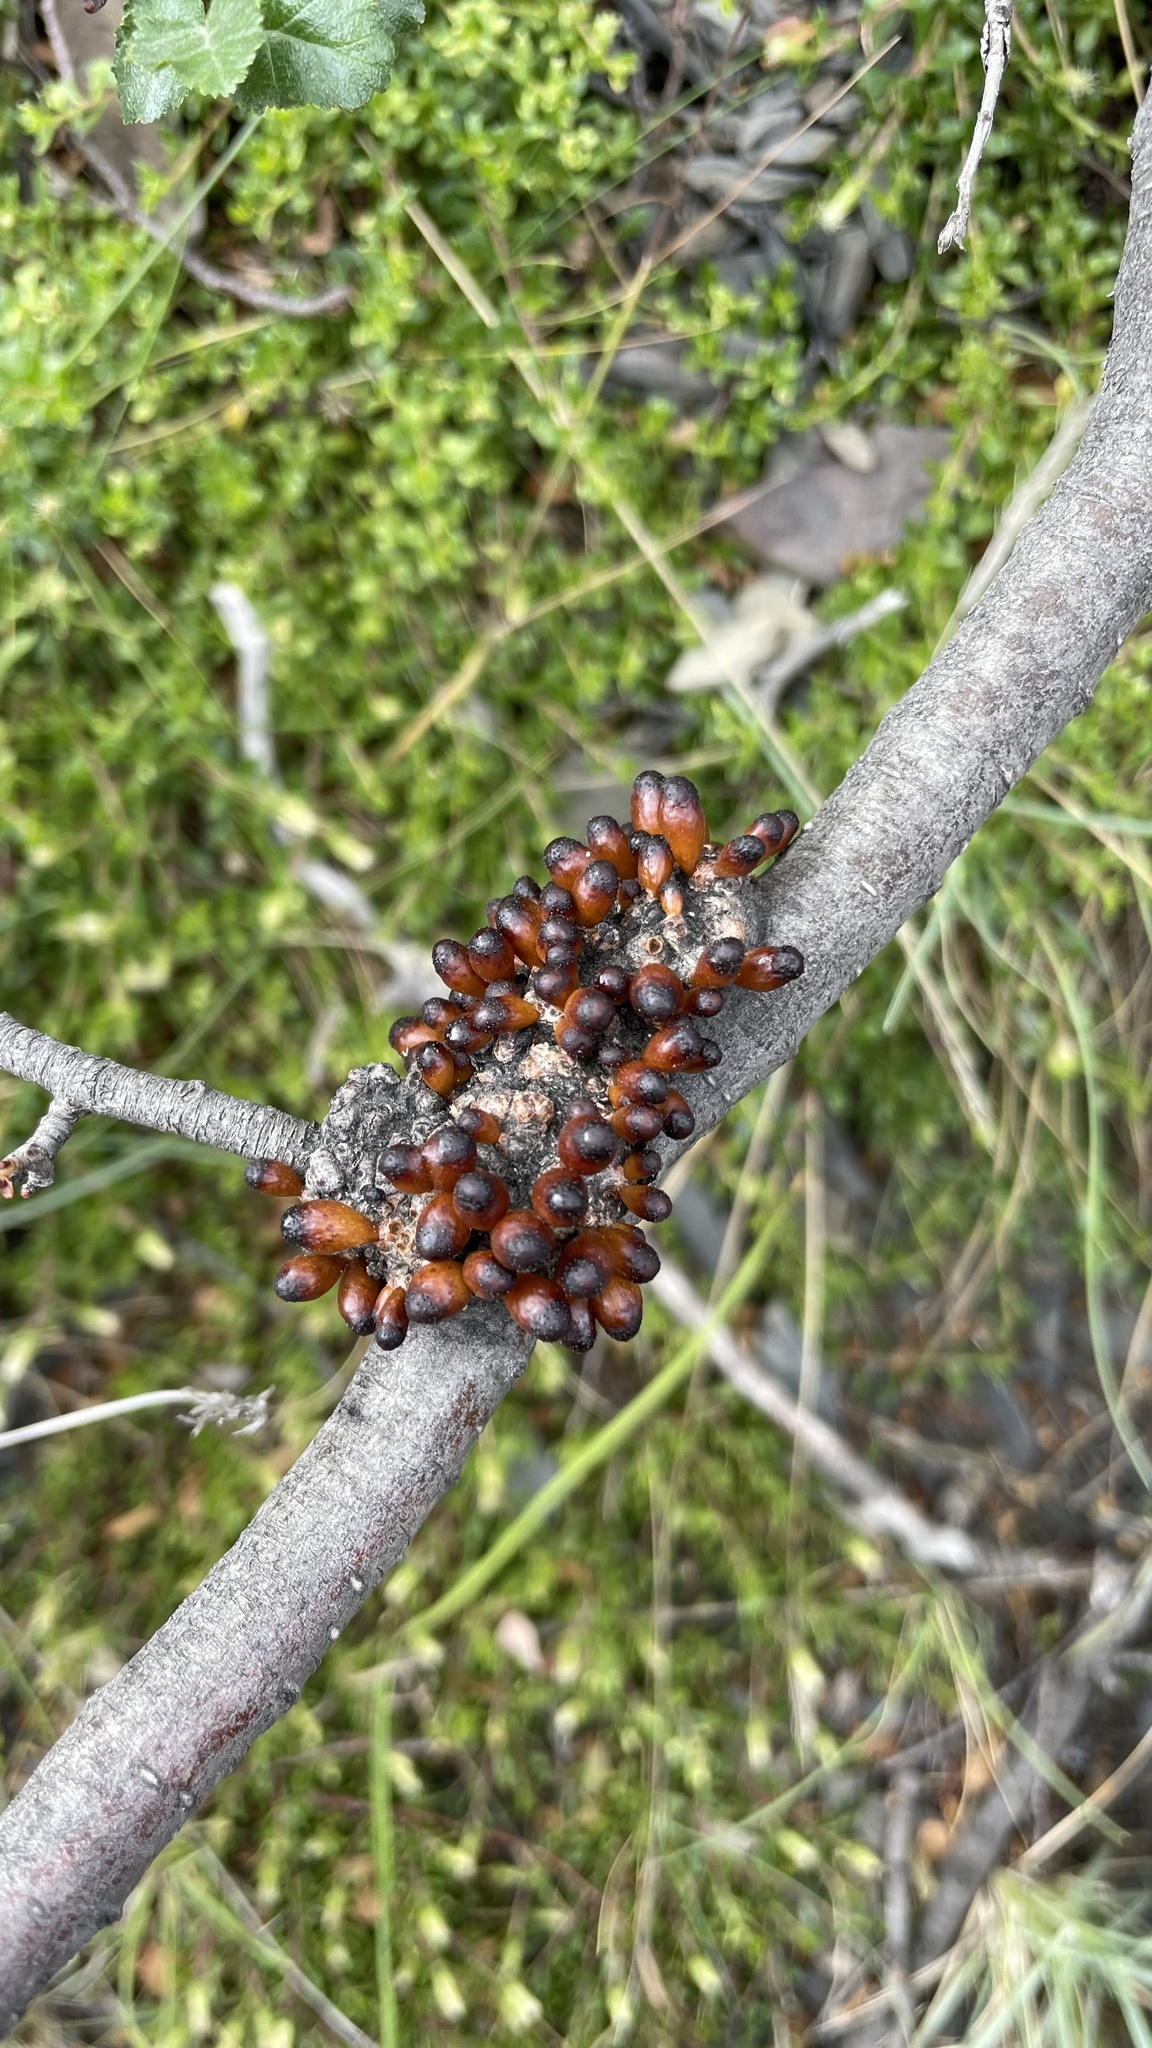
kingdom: Fungi
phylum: Ascomycota
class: Leotiomycetes
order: Cyttariales
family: Cyttariaceae
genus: Cyttaria
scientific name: Cyttaria hookeri
